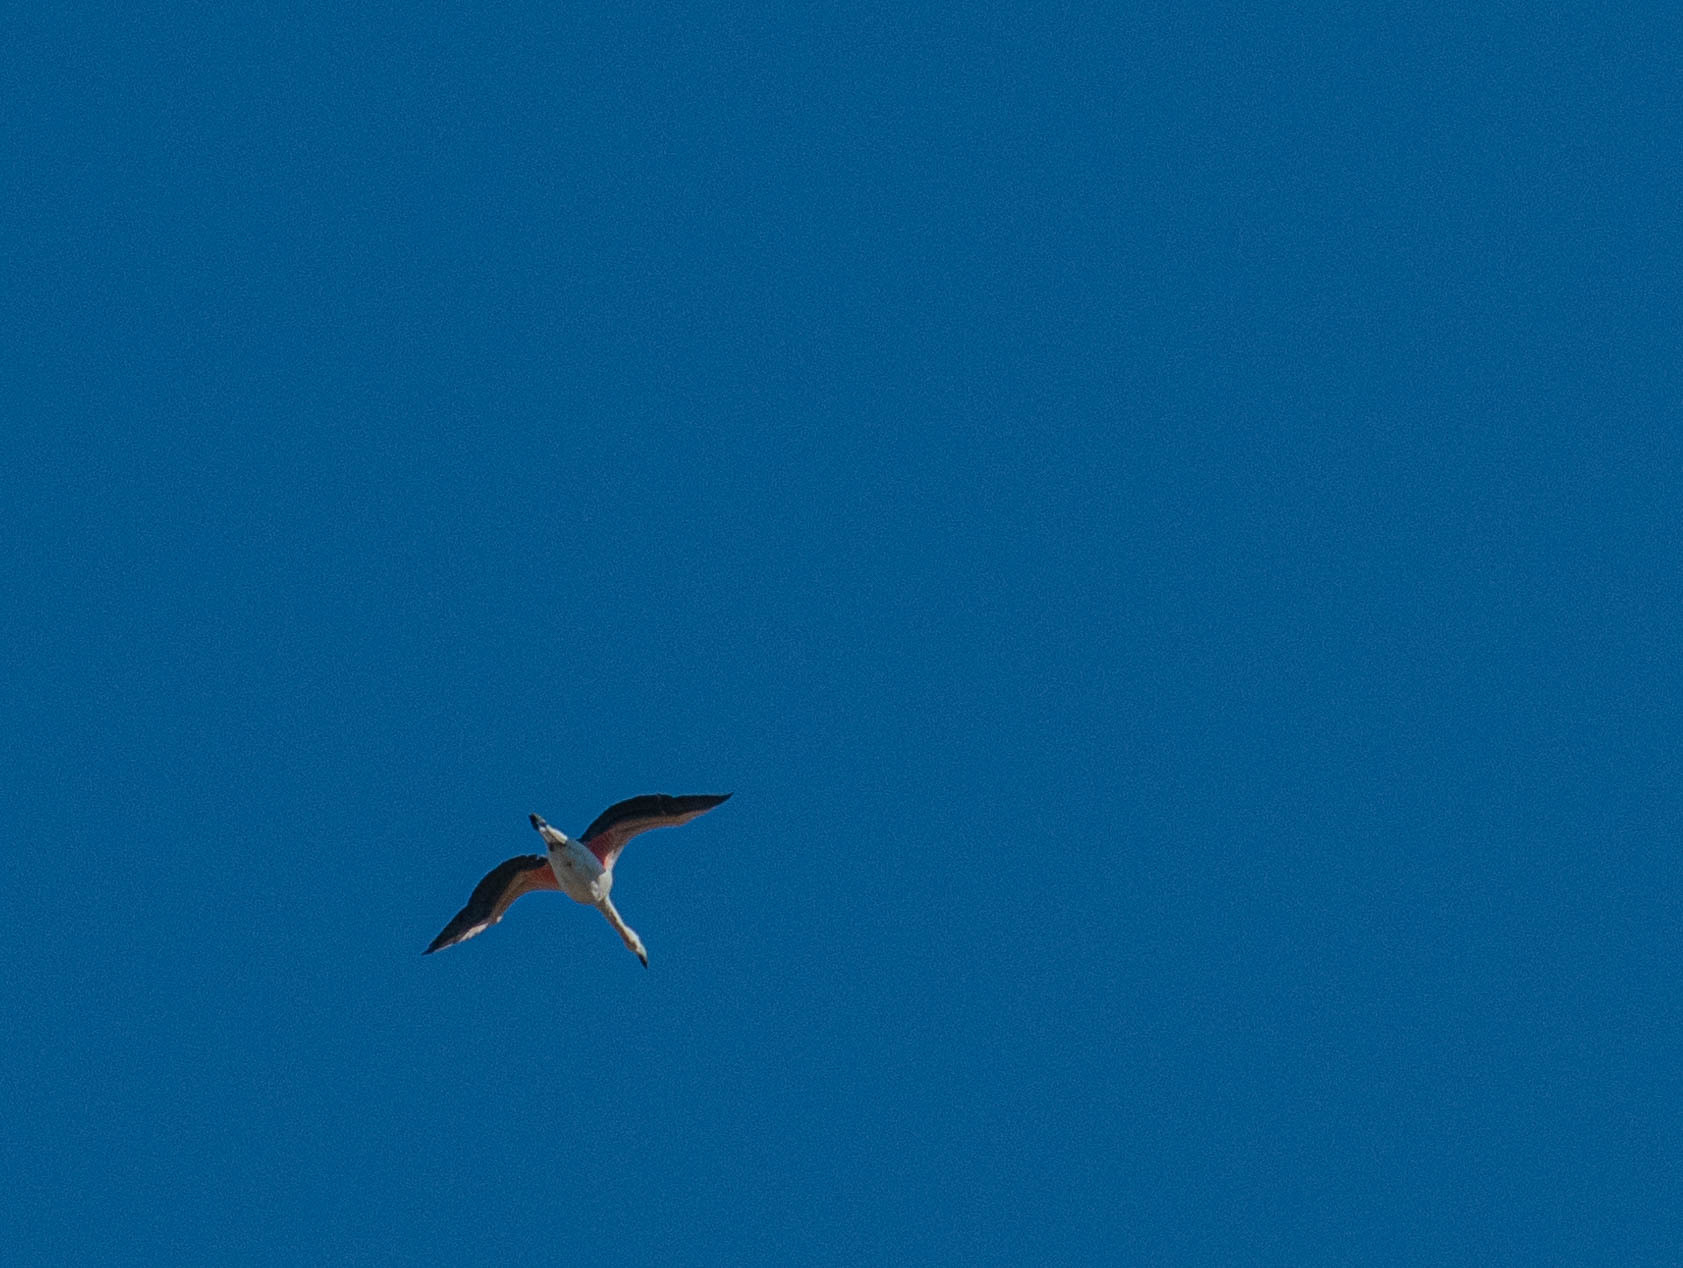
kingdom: Animalia
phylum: Chordata
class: Aves
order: Phoenicopteriformes
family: Phoenicopteridae
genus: Phoenicopterus
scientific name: Phoenicopterus chilensis
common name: Chilean flamingo
